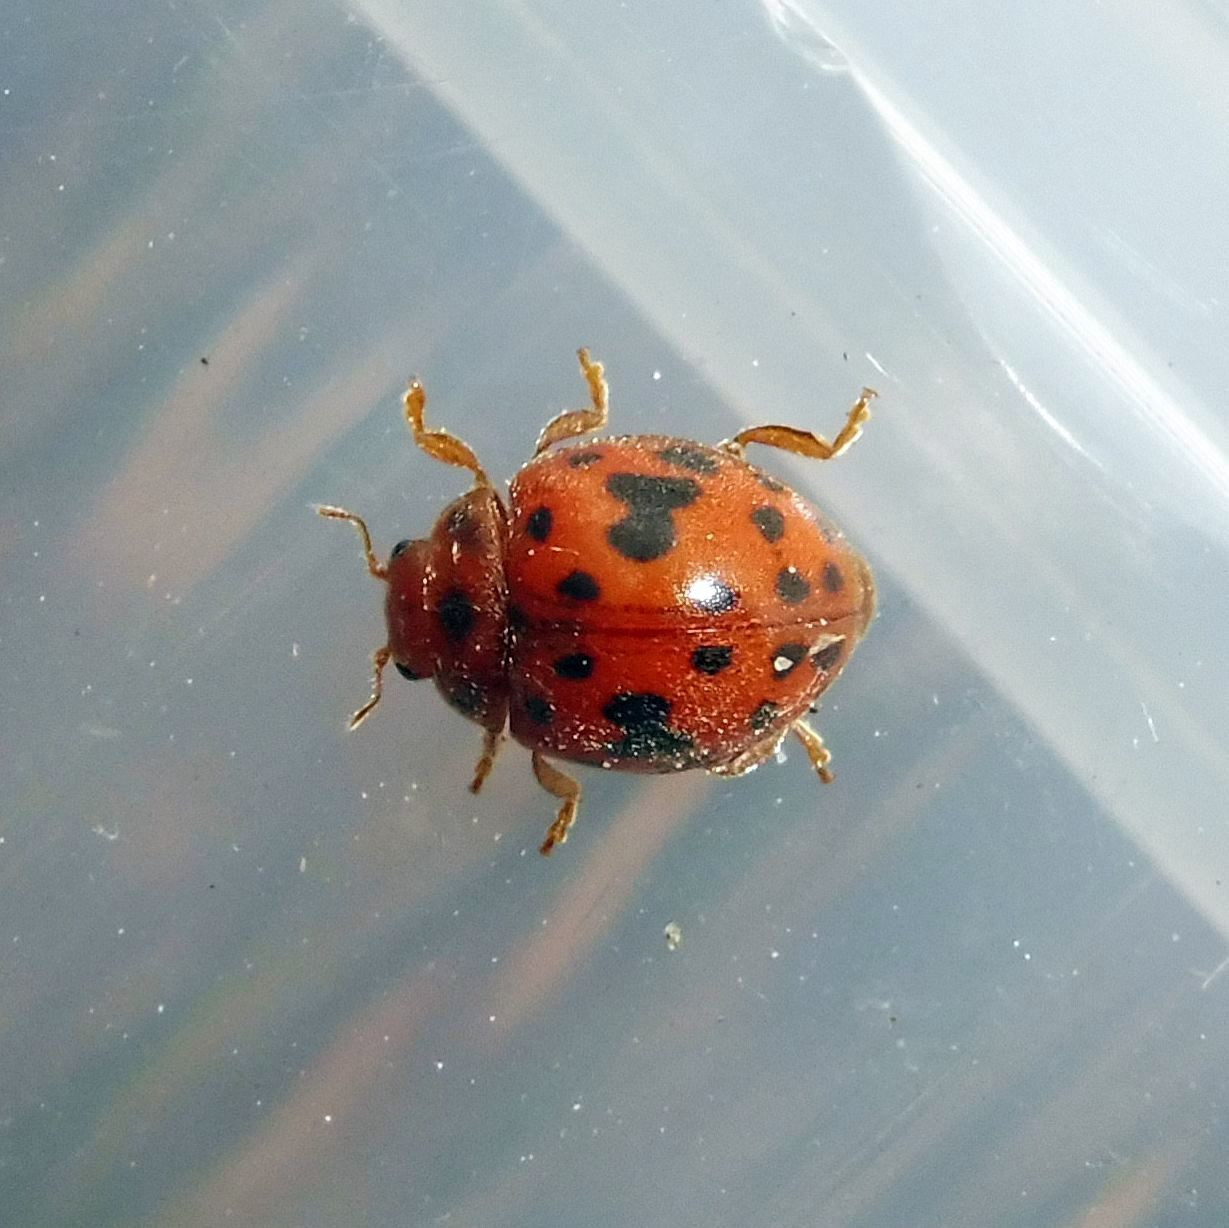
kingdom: Animalia
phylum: Arthropoda
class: Insecta
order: Coleoptera
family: Coccinellidae
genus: Subcoccinella
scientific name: Subcoccinella vigintiquatuorpunctata
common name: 24-spot ladybird
